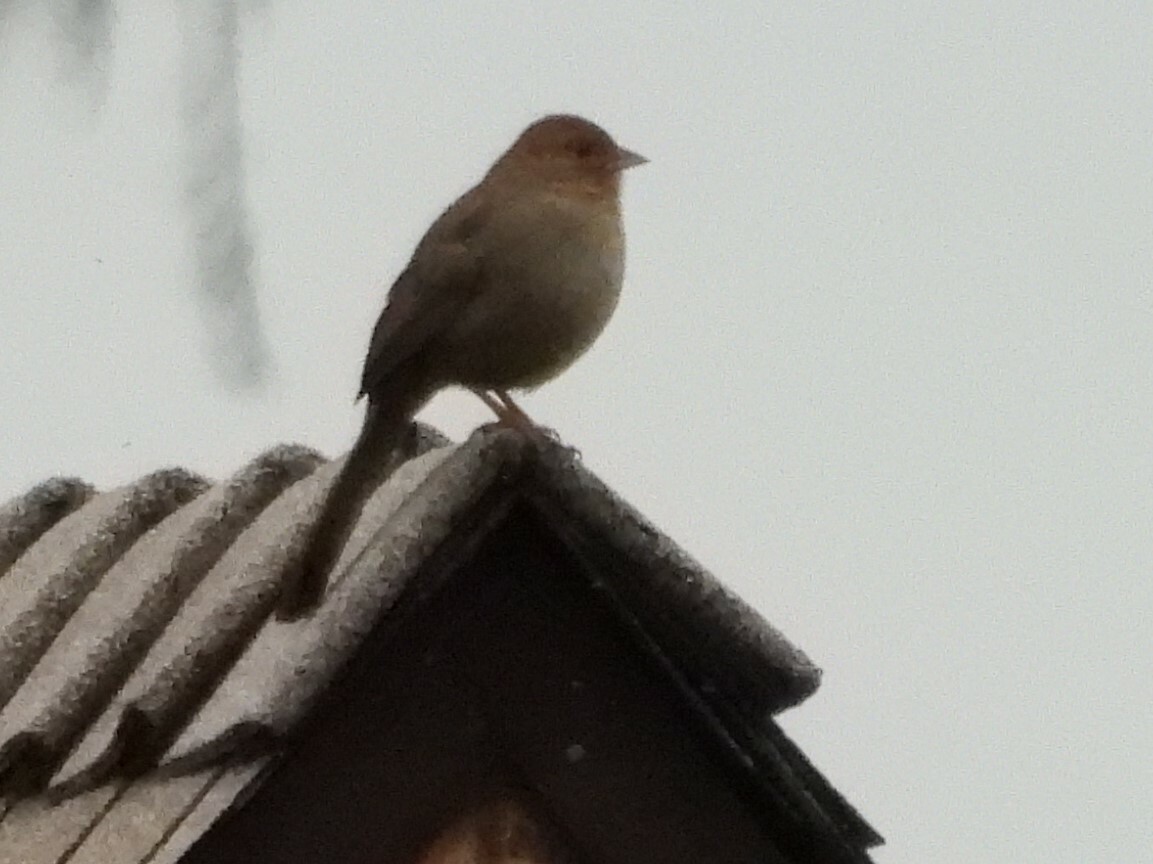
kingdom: Animalia
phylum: Chordata
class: Aves
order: Passeriformes
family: Passerellidae
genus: Melozone
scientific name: Melozone crissalis
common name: California towhee
